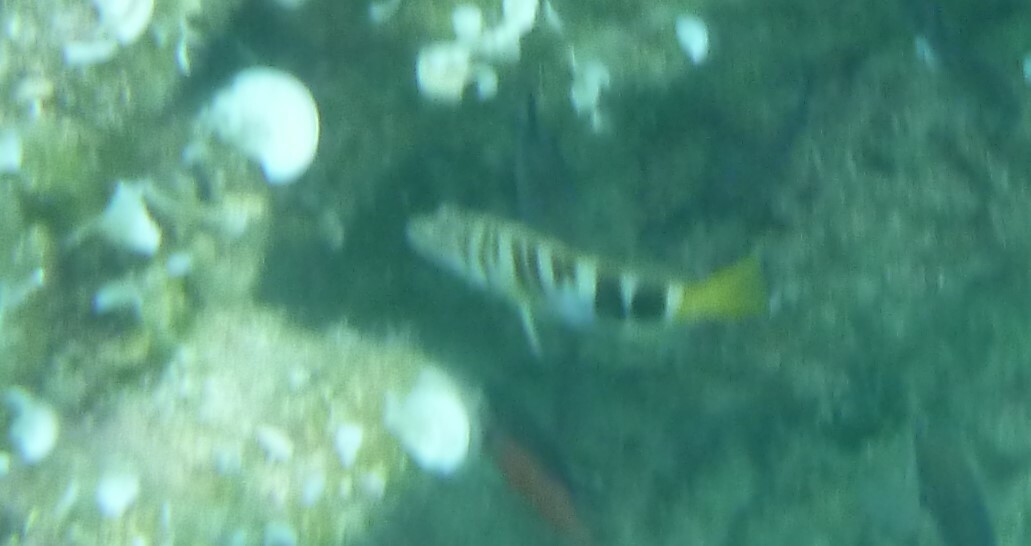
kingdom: Animalia
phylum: Chordata
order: Perciformes
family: Serranidae
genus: Serranus
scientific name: Serranus scriba
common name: Painted comber
